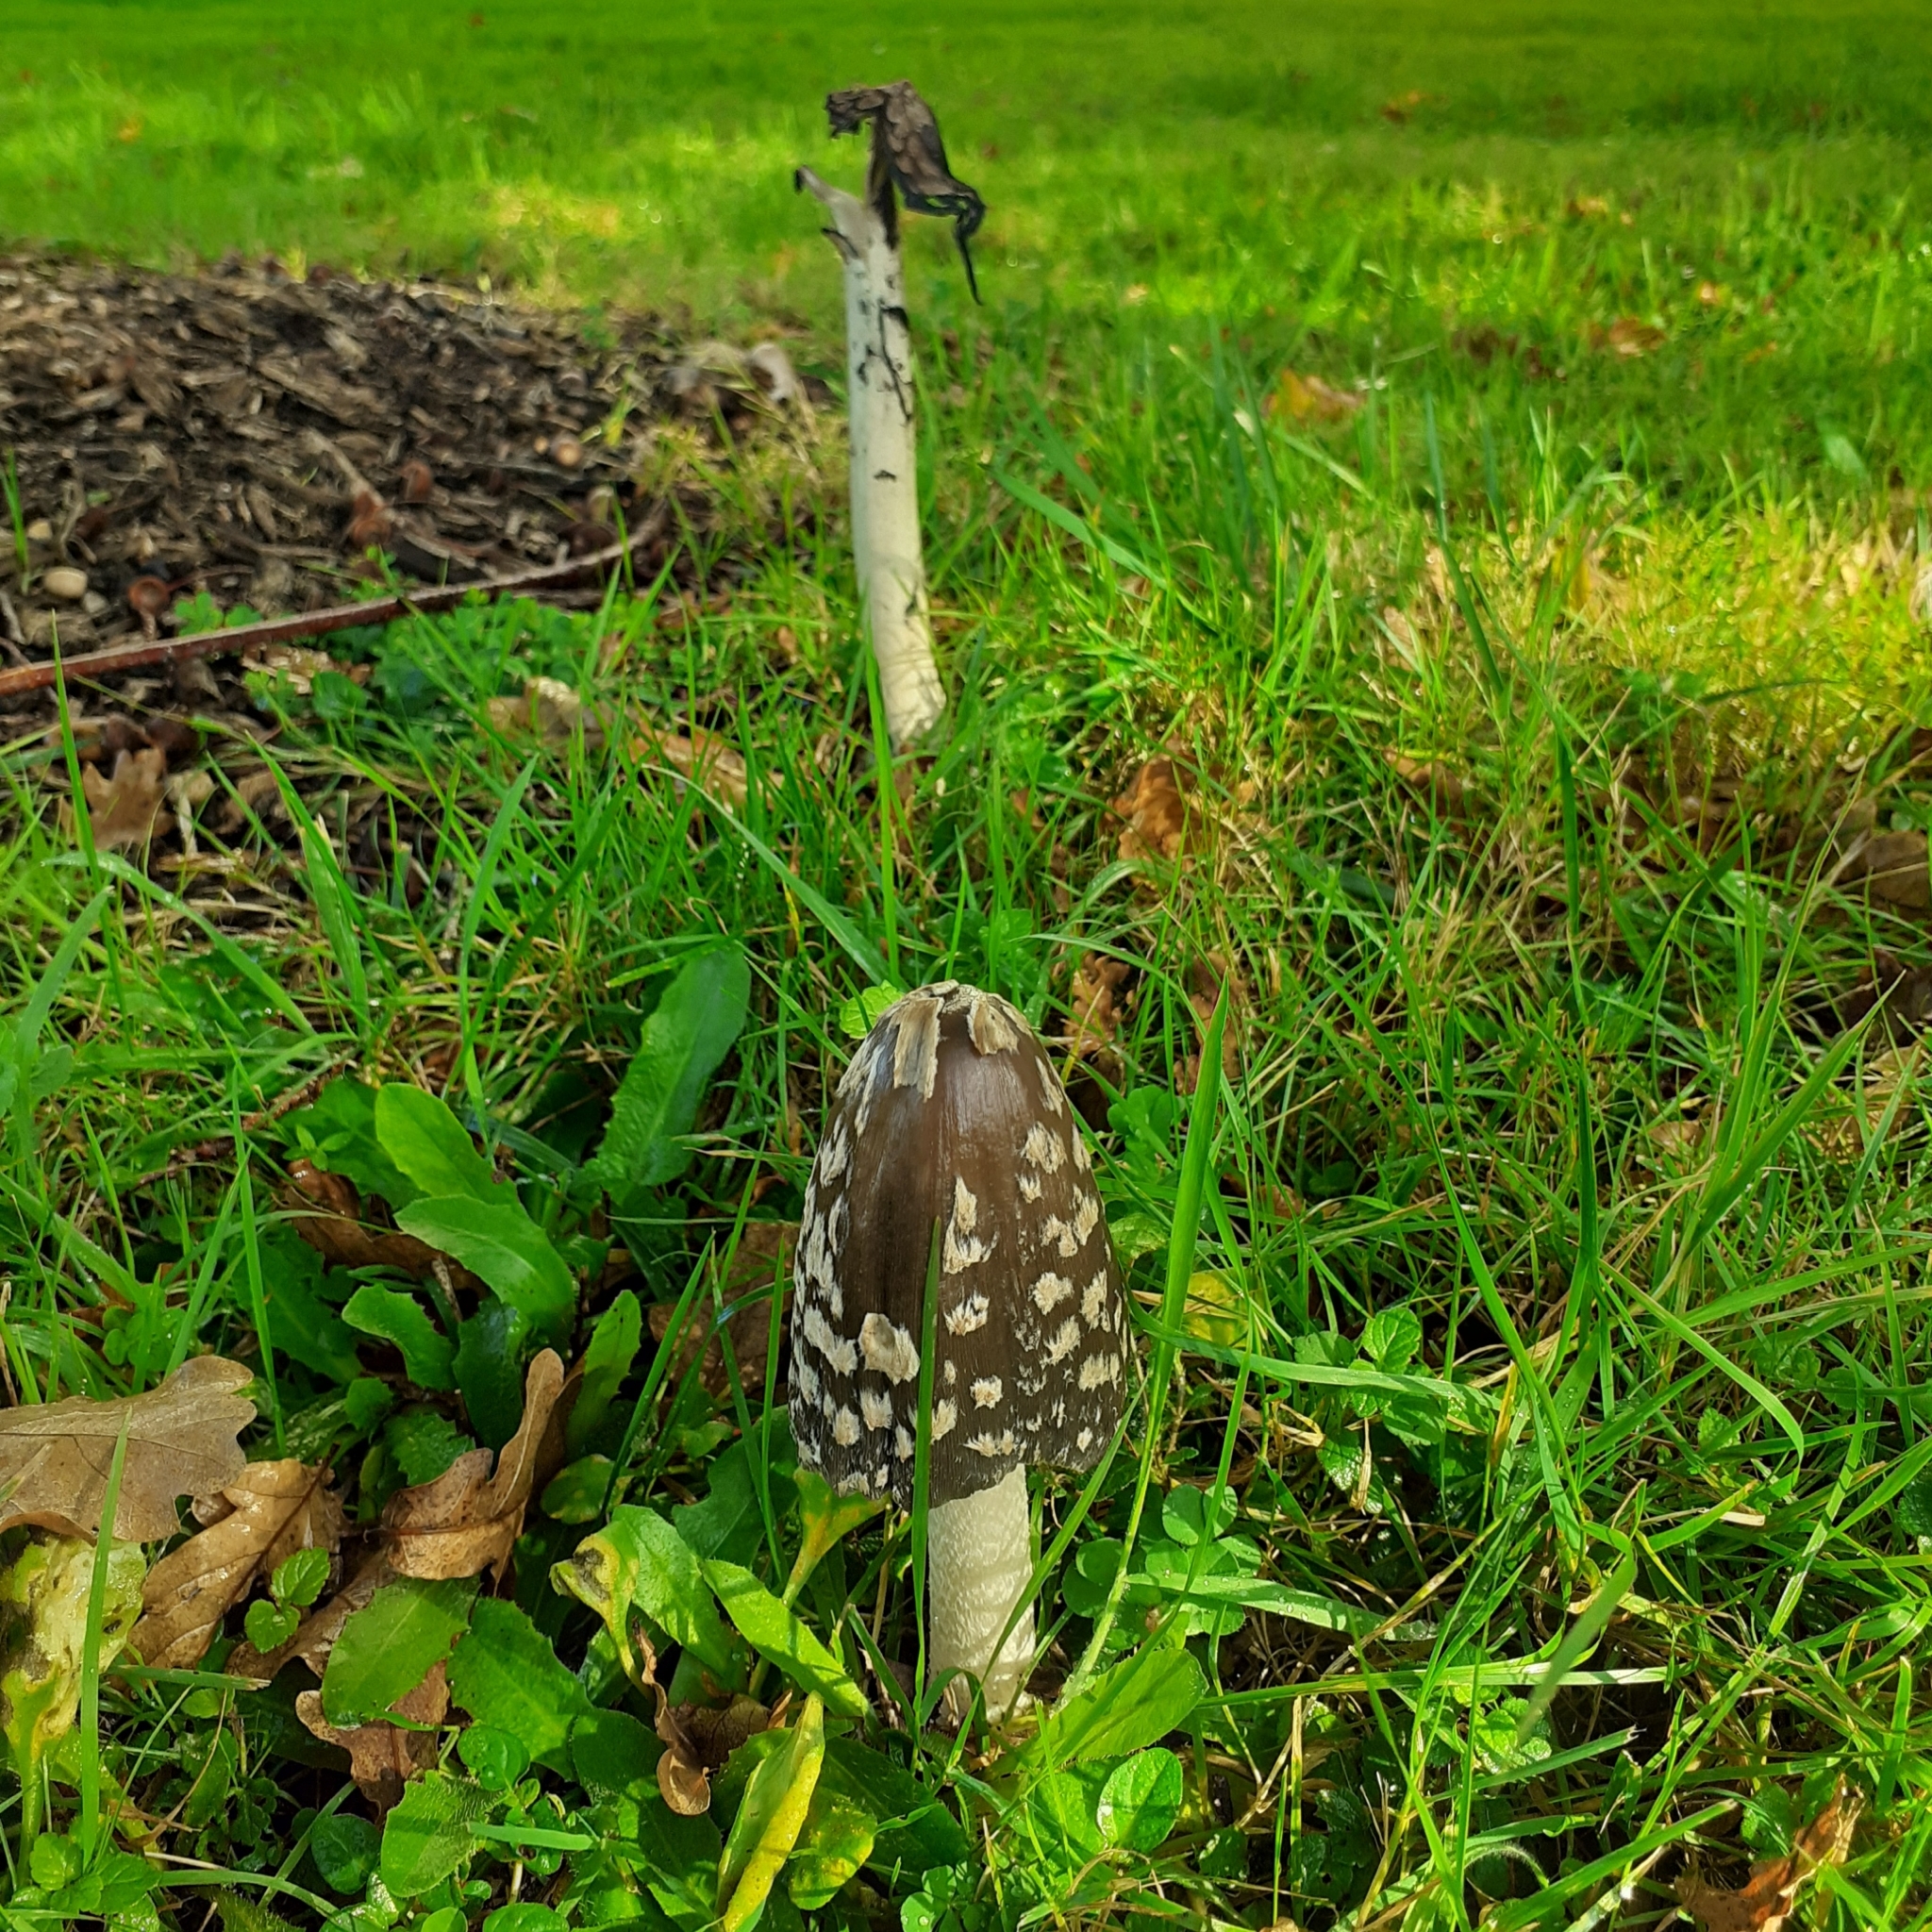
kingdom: Fungi
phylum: Basidiomycota
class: Agaricomycetes
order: Agaricales
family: Psathyrellaceae
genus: Coprinopsis
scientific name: Coprinopsis picacea
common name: Magpie inkcap
